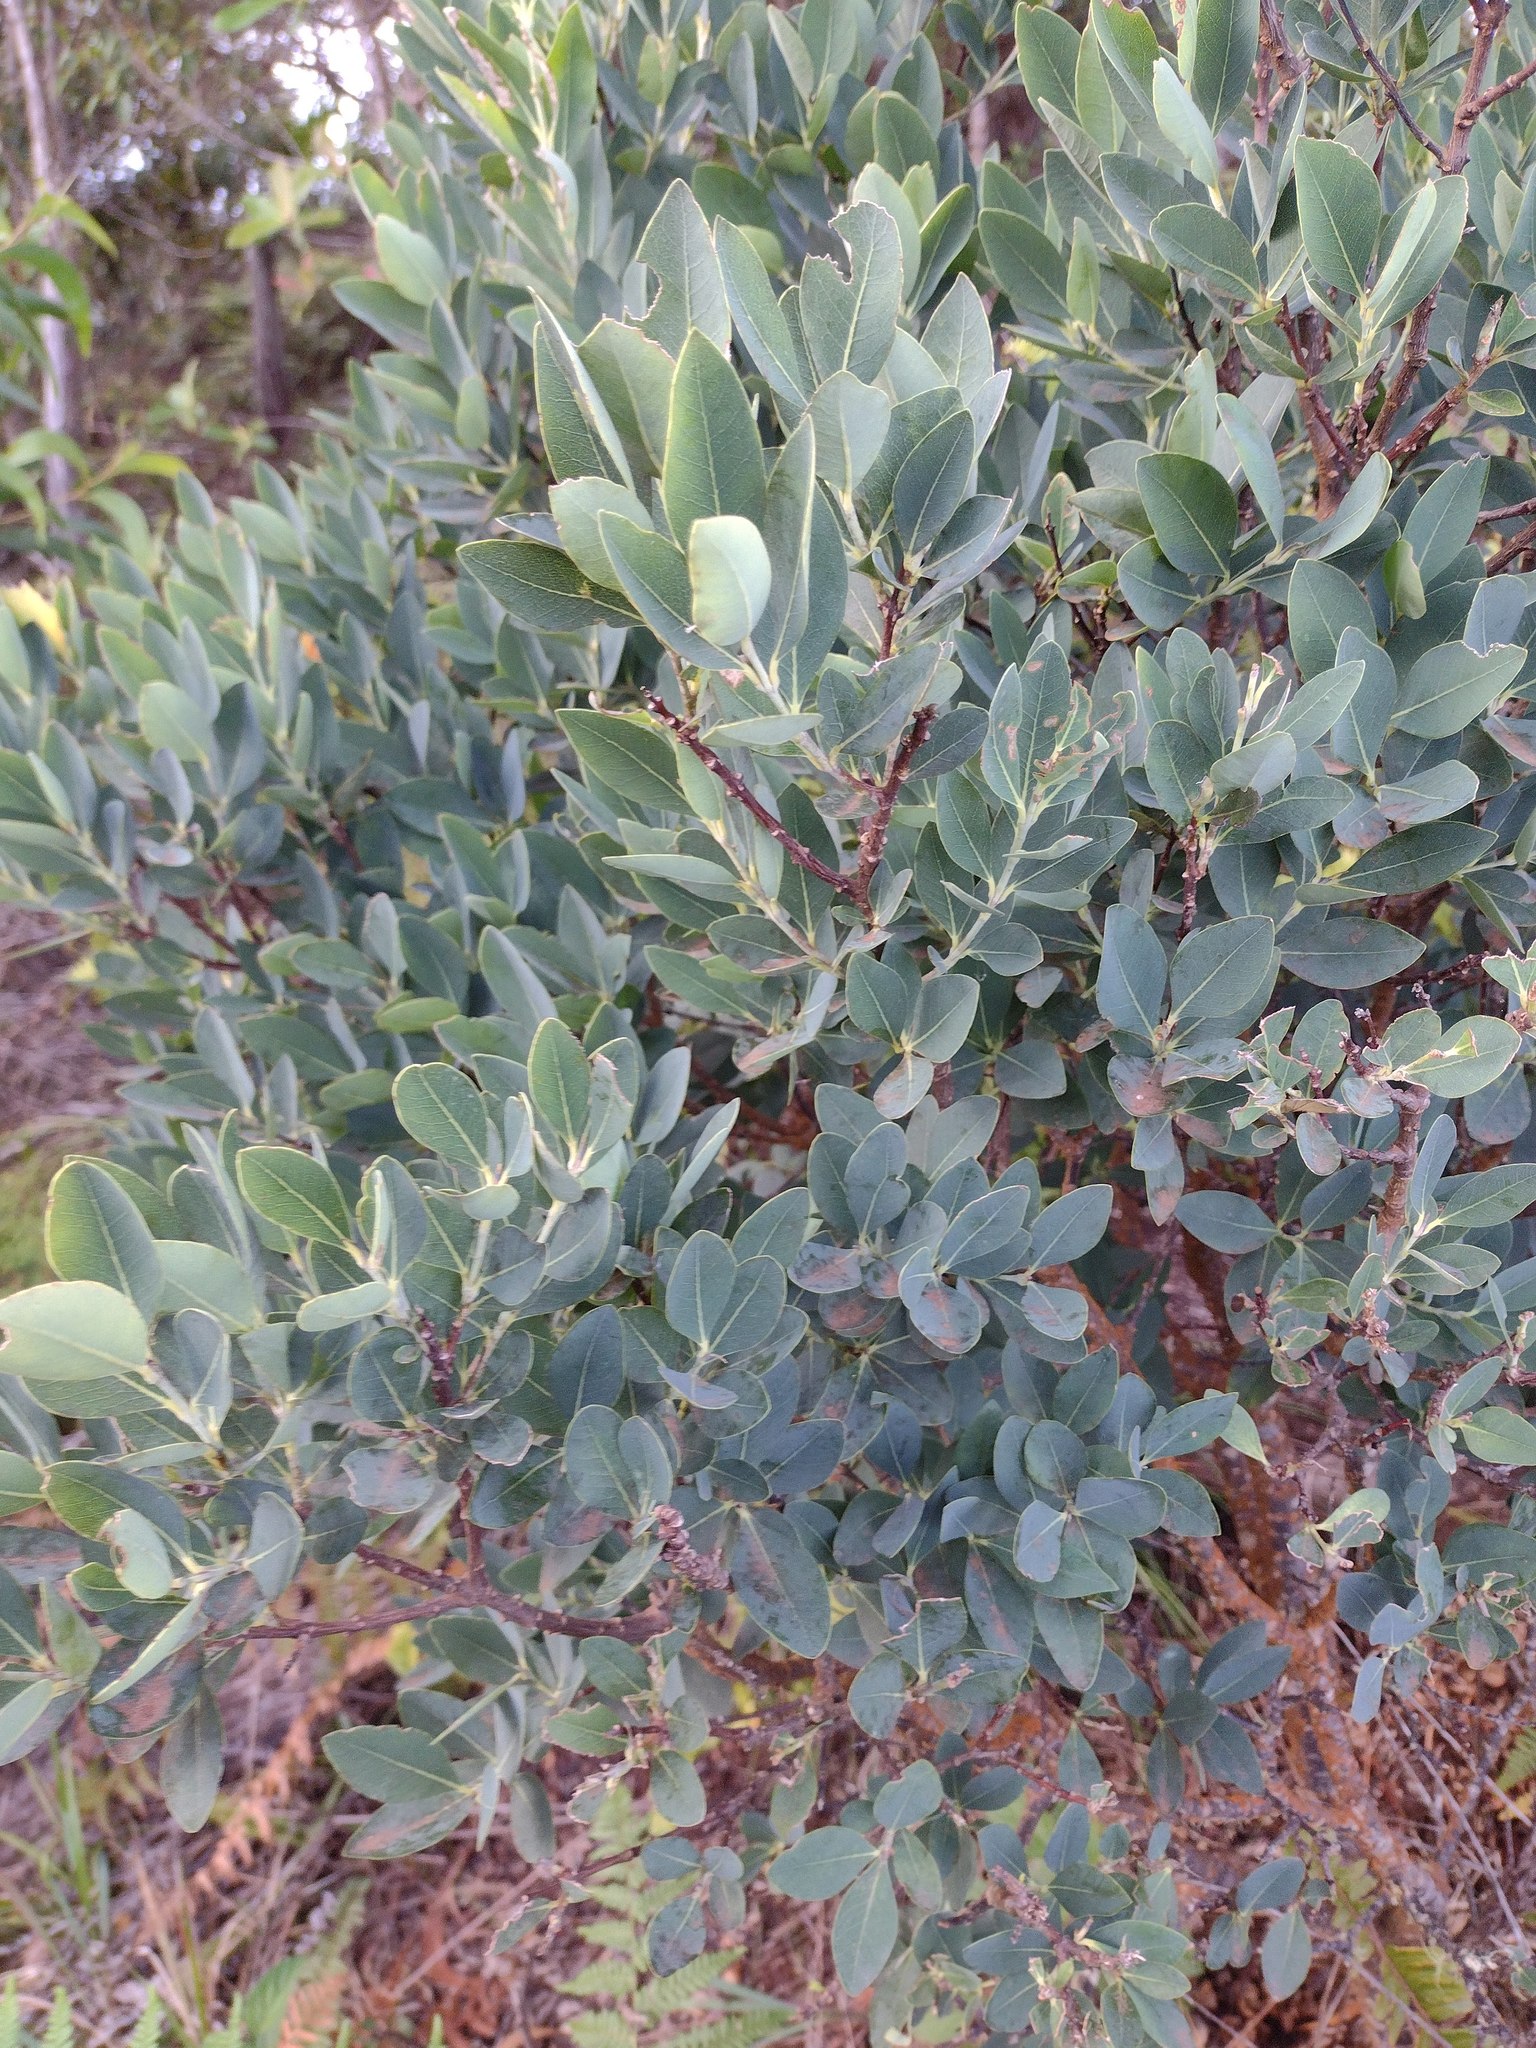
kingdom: Plantae
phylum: Tracheophyta
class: Magnoliopsida
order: Malvales
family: Thymelaeaceae
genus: Wikstroemia
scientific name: Wikstroemia oahuensis
